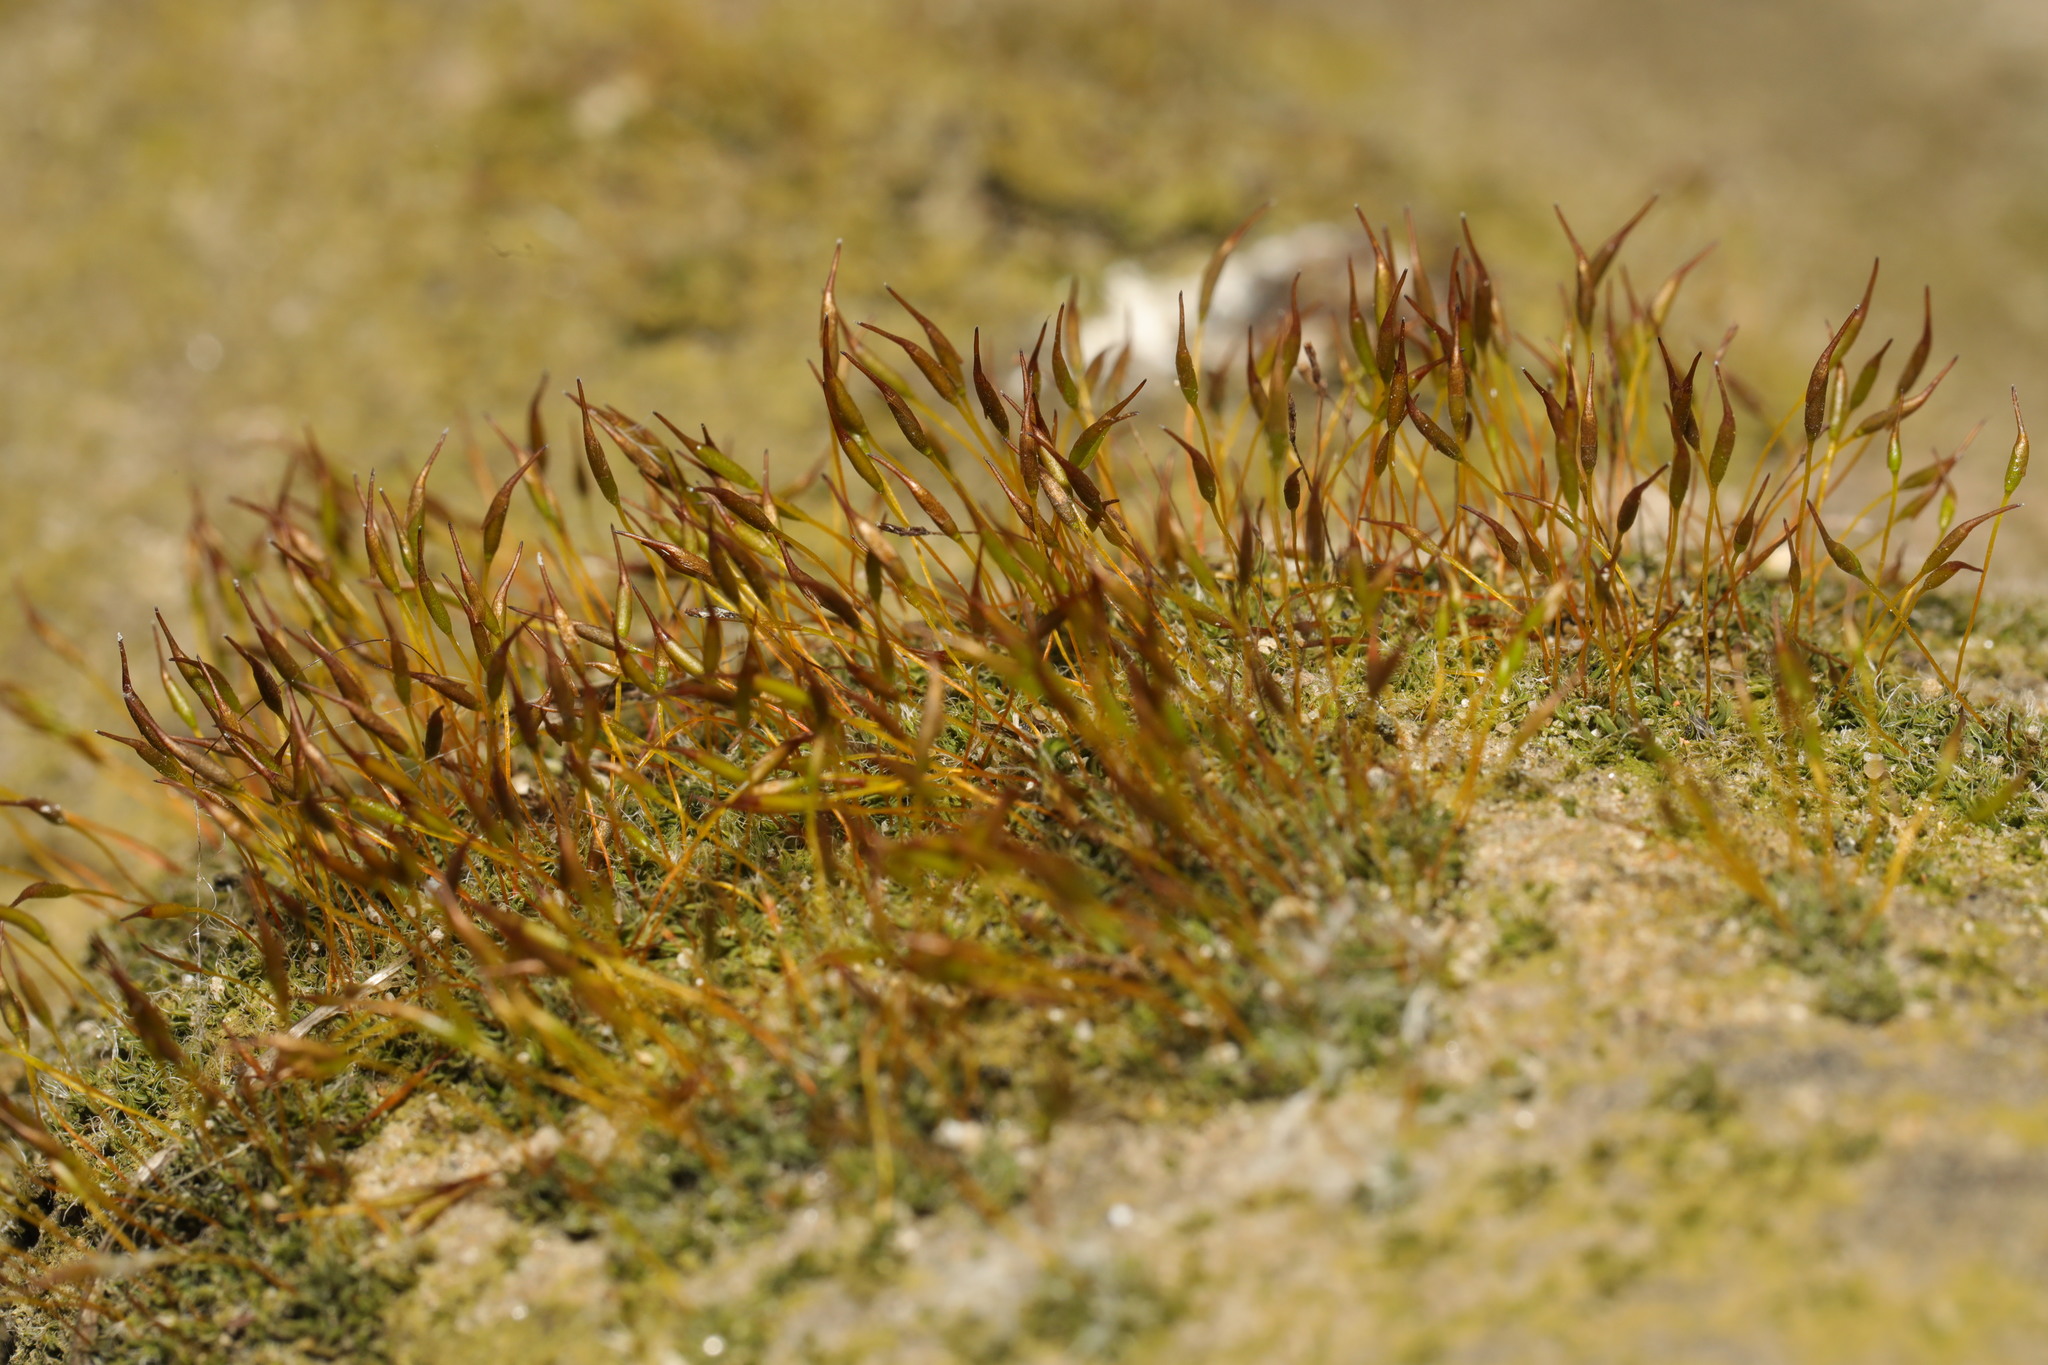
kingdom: Plantae
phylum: Bryophyta
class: Bryopsida
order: Pottiales
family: Pottiaceae
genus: Tortula
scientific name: Tortula muralis
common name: Wall screw-moss
